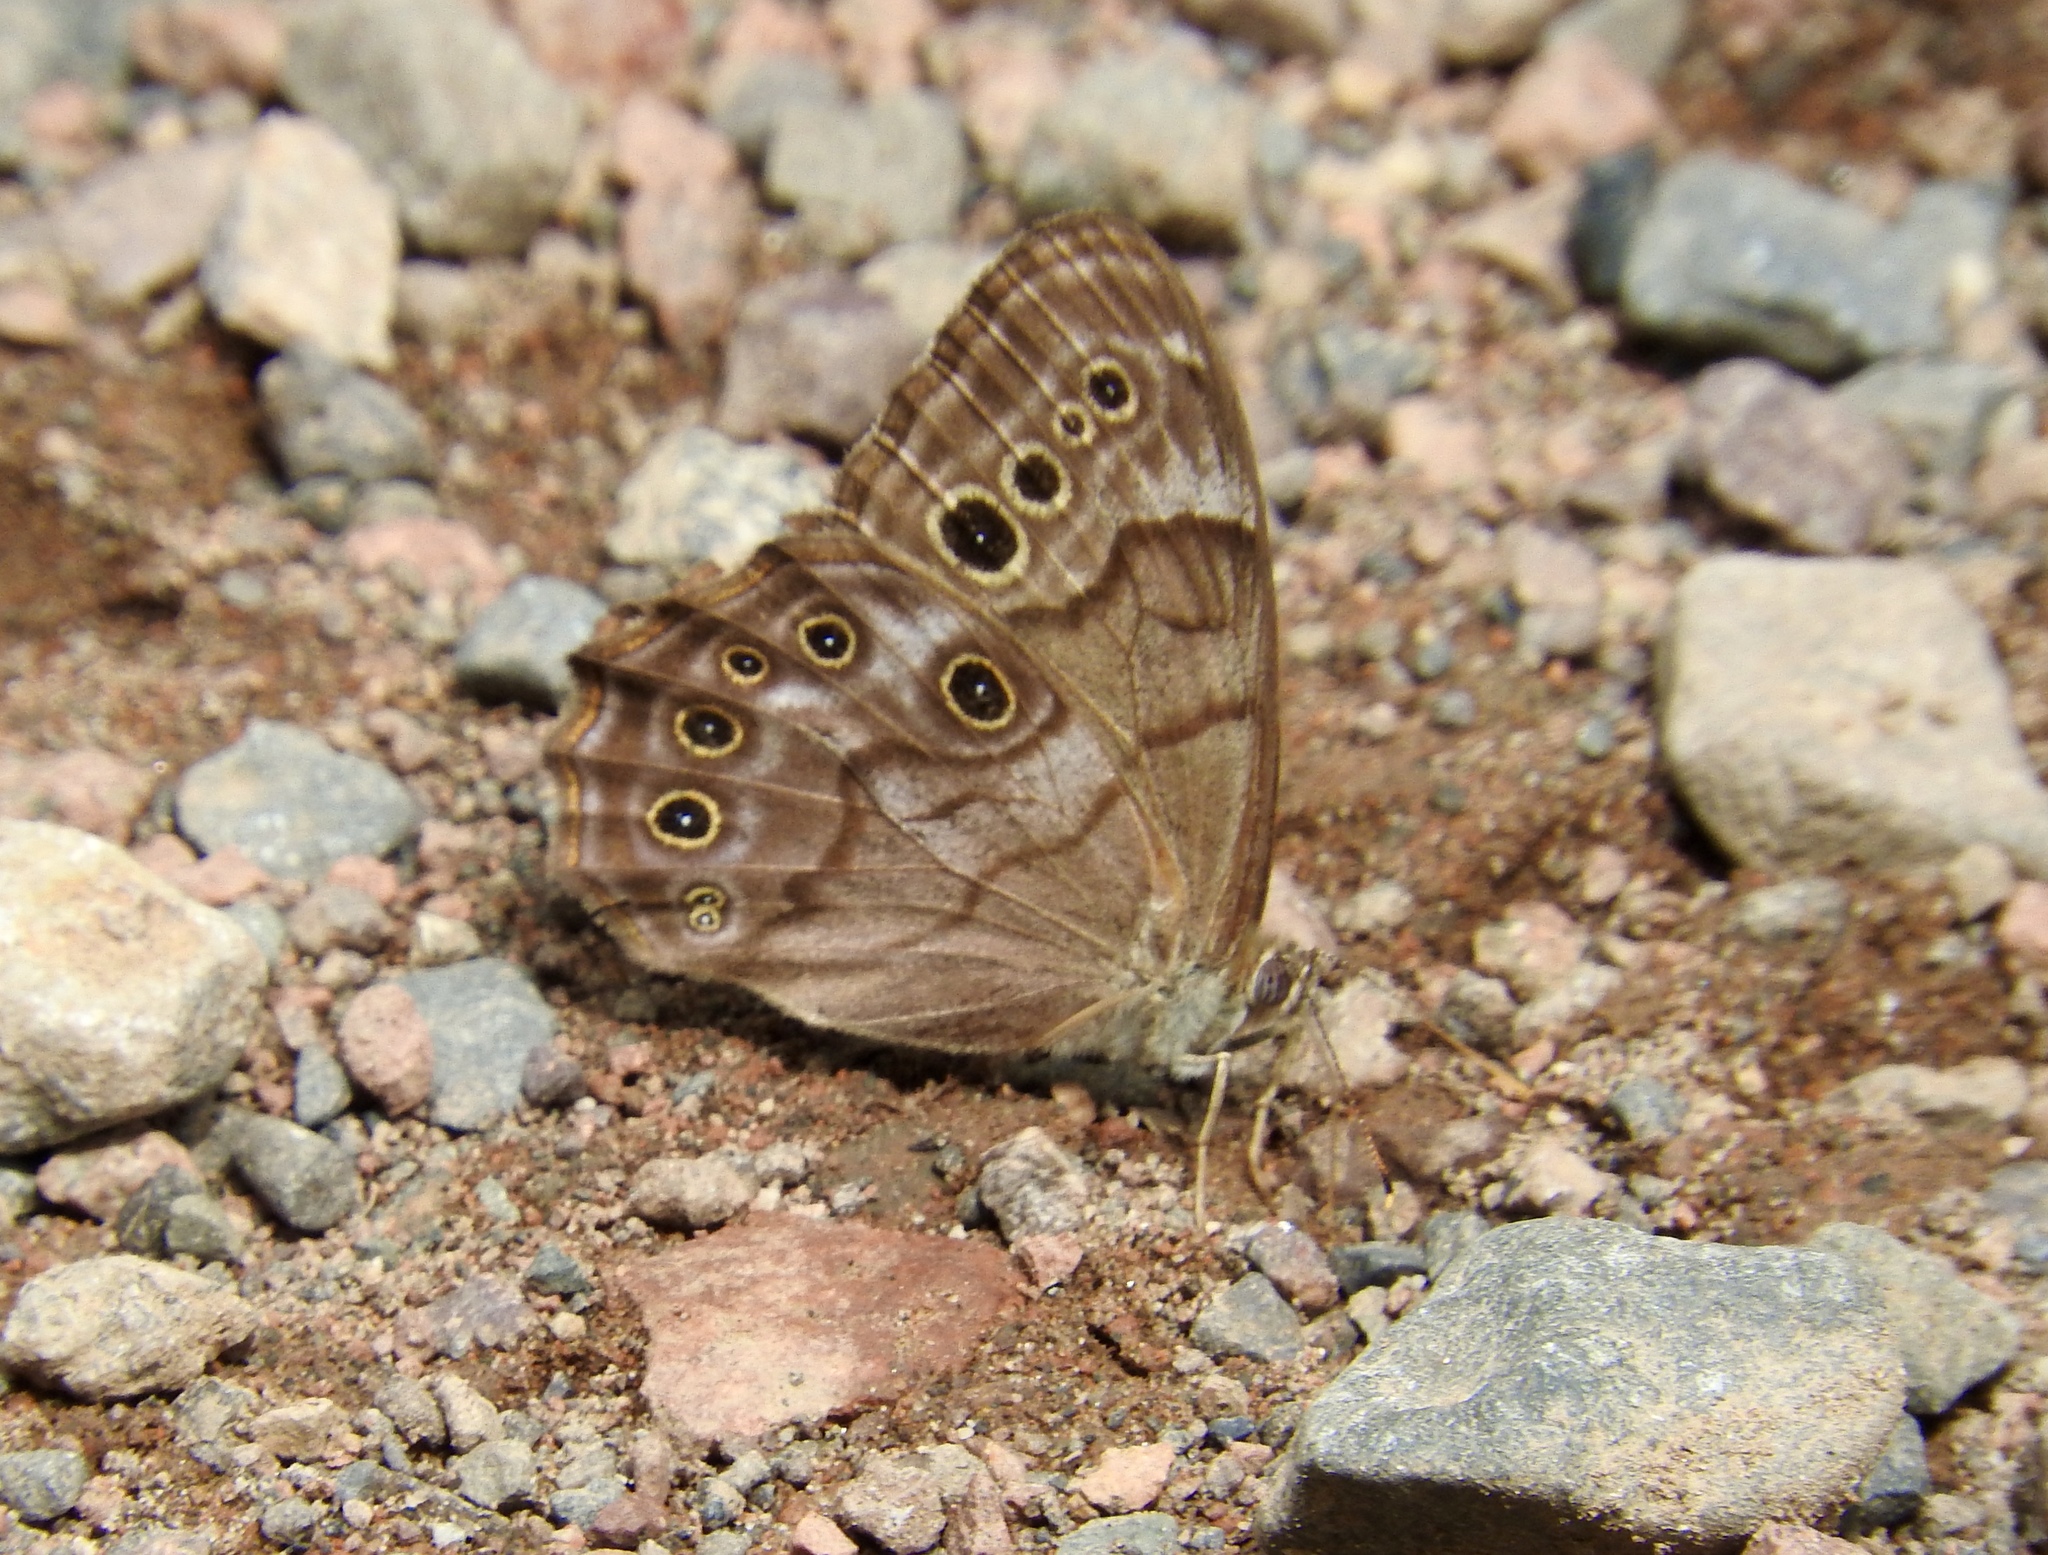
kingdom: Animalia
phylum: Arthropoda
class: Insecta
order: Lepidoptera
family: Nymphalidae
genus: Lethe
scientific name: Lethe anthedon
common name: Northern pearly-eye
